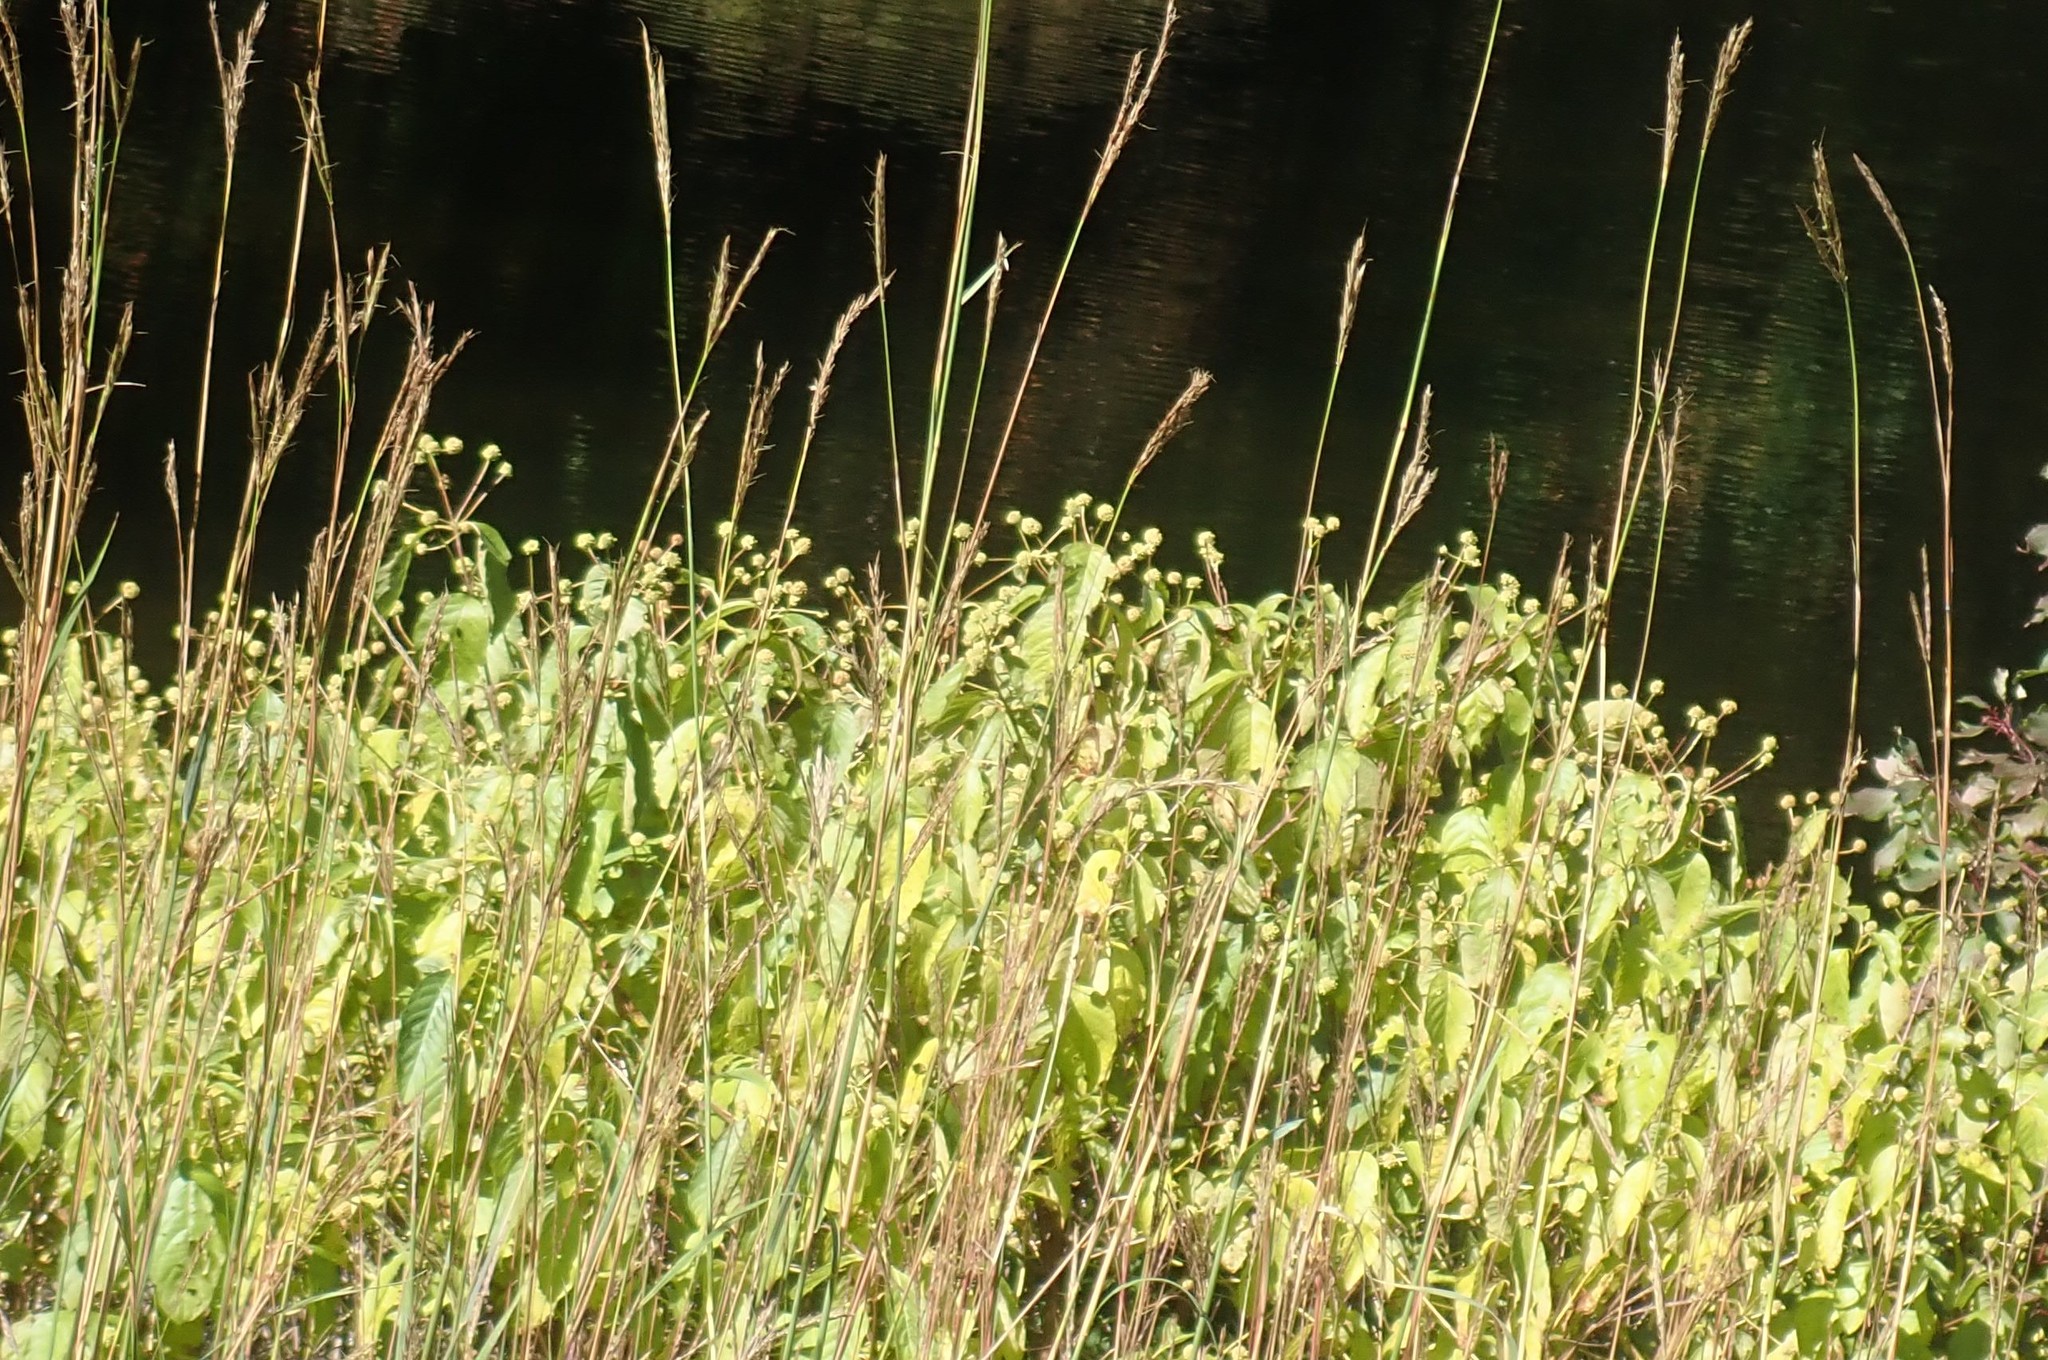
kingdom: Plantae
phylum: Tracheophyta
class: Magnoliopsida
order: Gentianales
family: Rubiaceae
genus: Cephalanthus
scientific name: Cephalanthus occidentalis
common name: Button-willow
